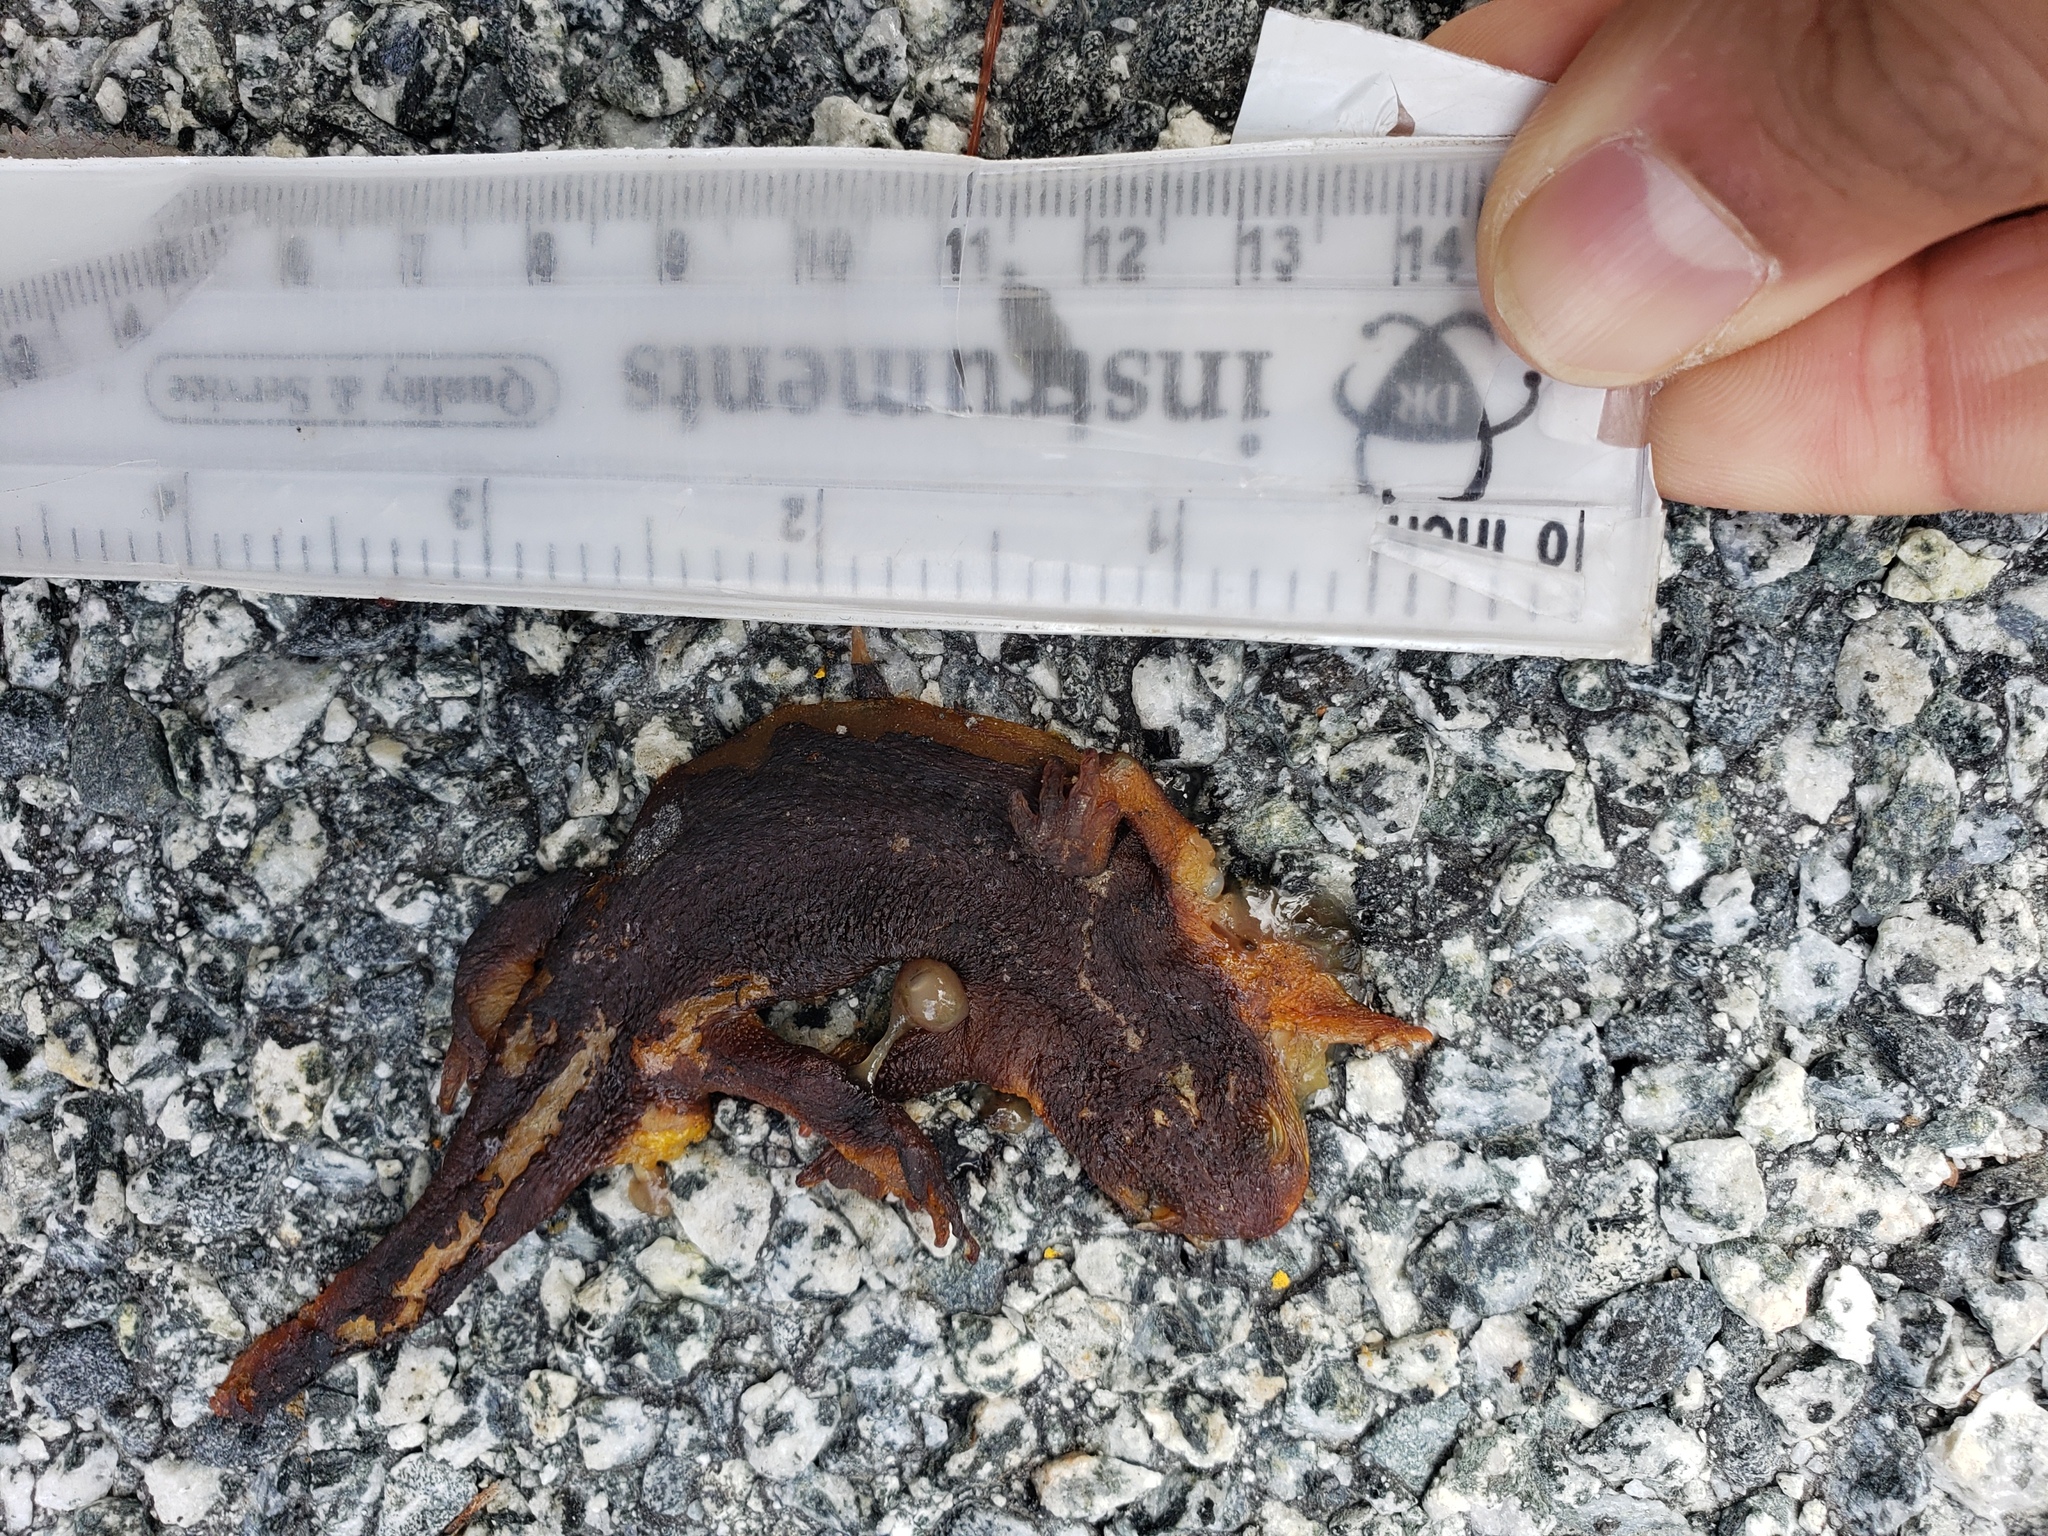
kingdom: Animalia
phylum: Chordata
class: Amphibia
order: Caudata
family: Salamandridae
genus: Taricha
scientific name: Taricha
